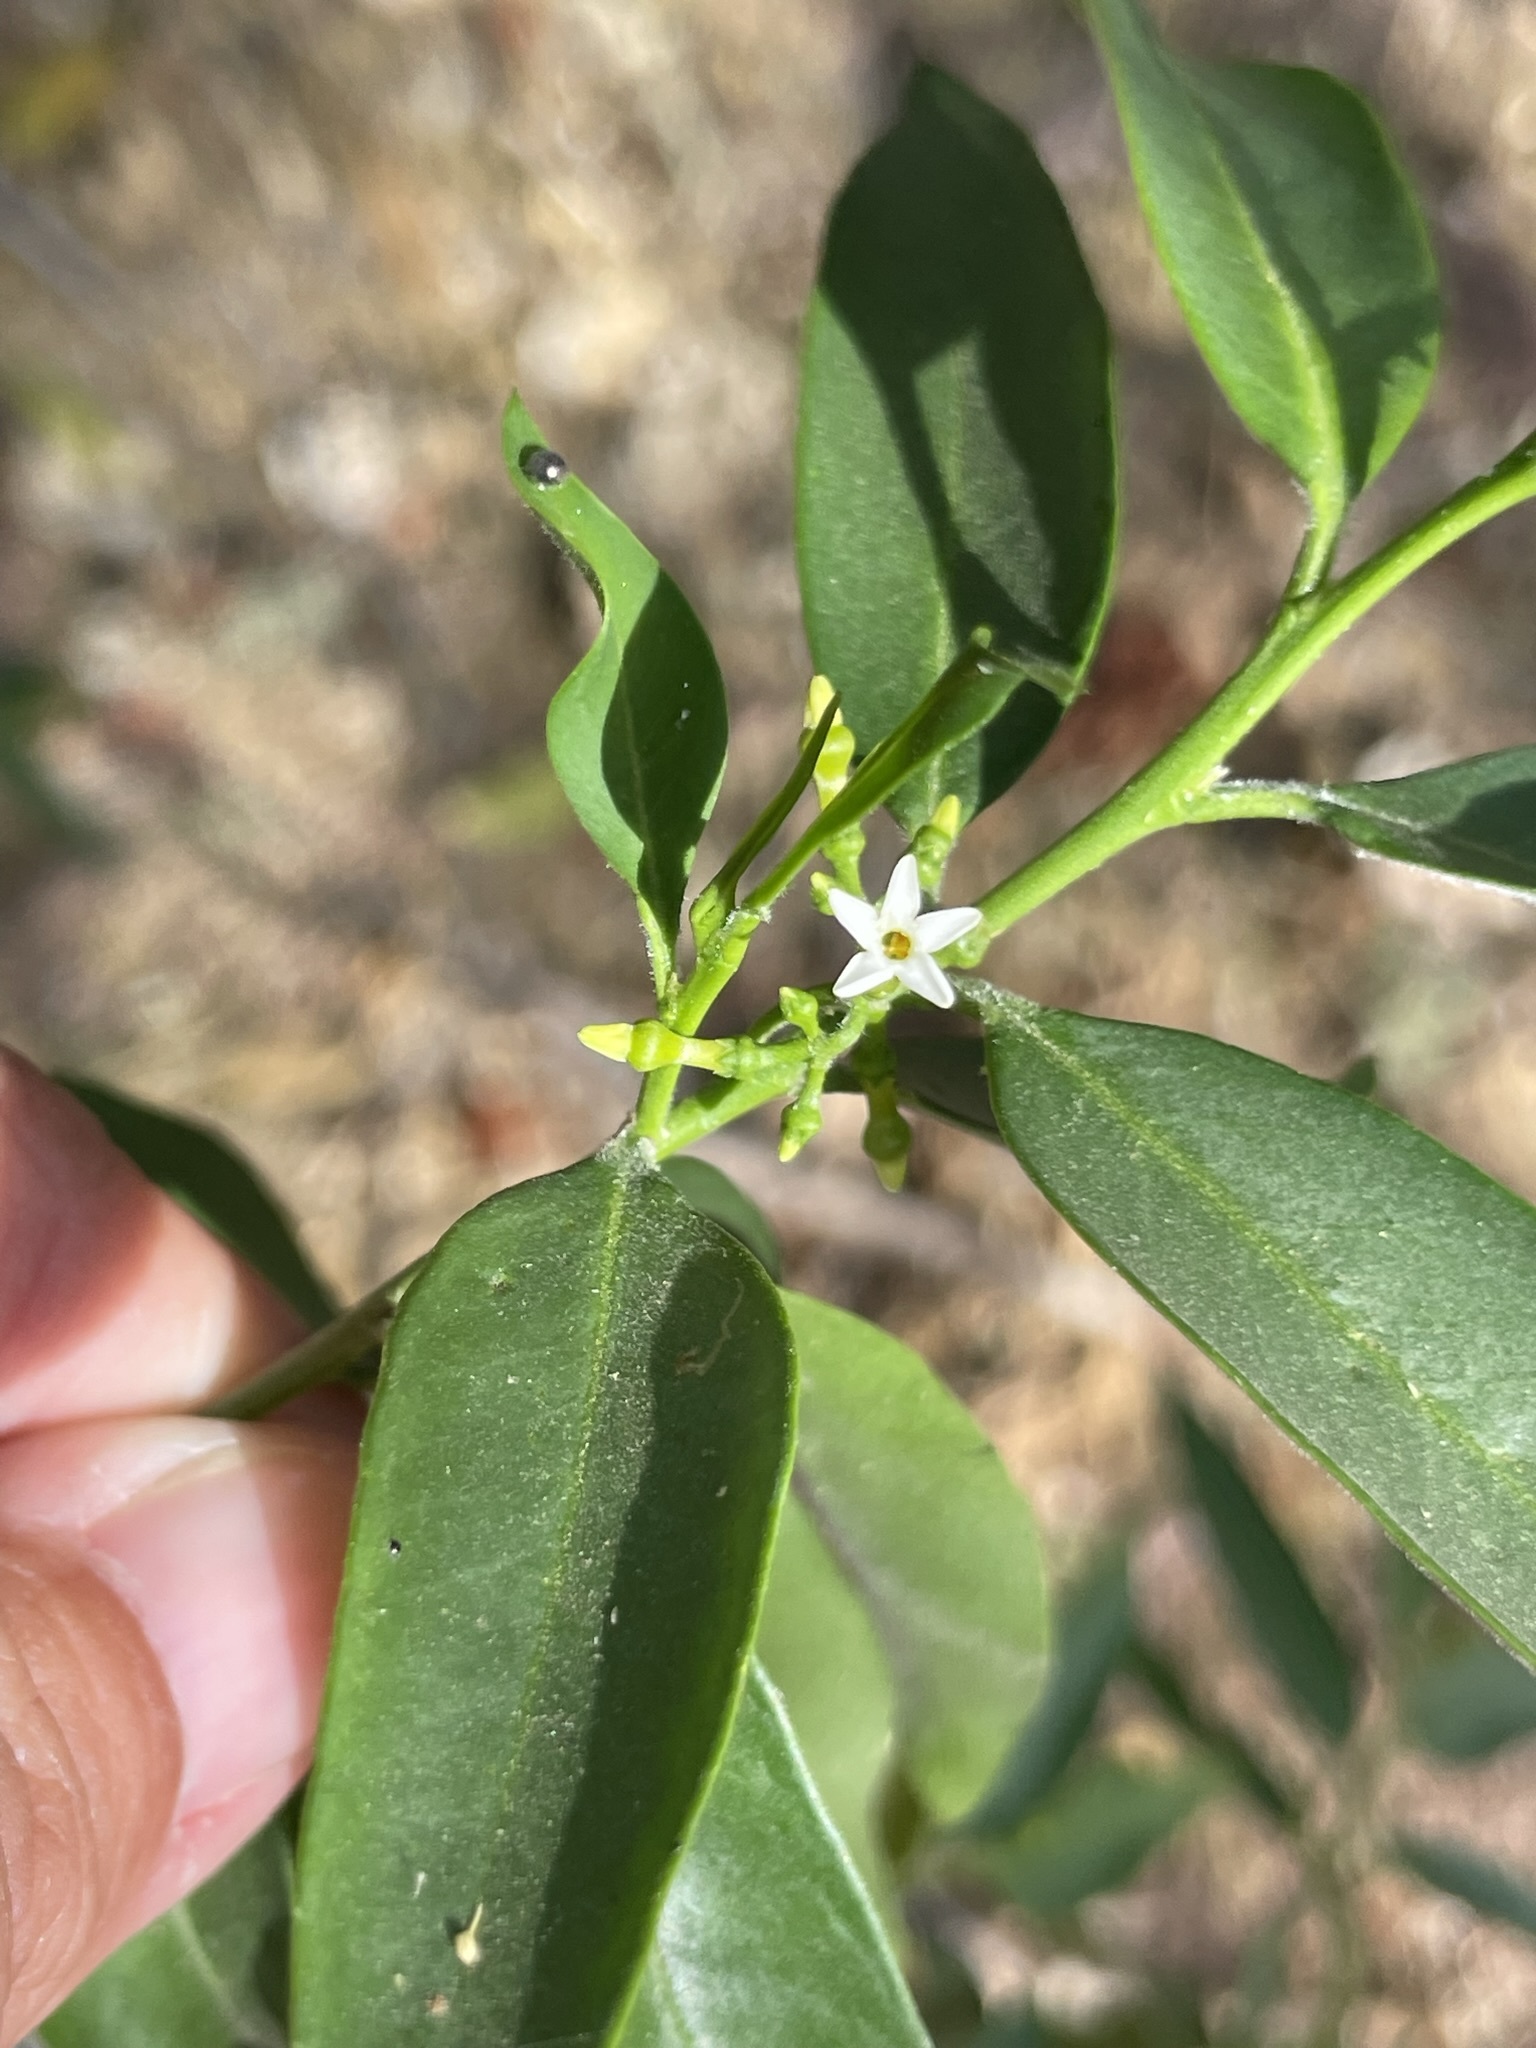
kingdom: Plantae
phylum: Tracheophyta
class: Magnoliopsida
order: Gentianales
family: Apocynaceae
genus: Vallesia
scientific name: Vallesia glabra
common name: Pearlberry
